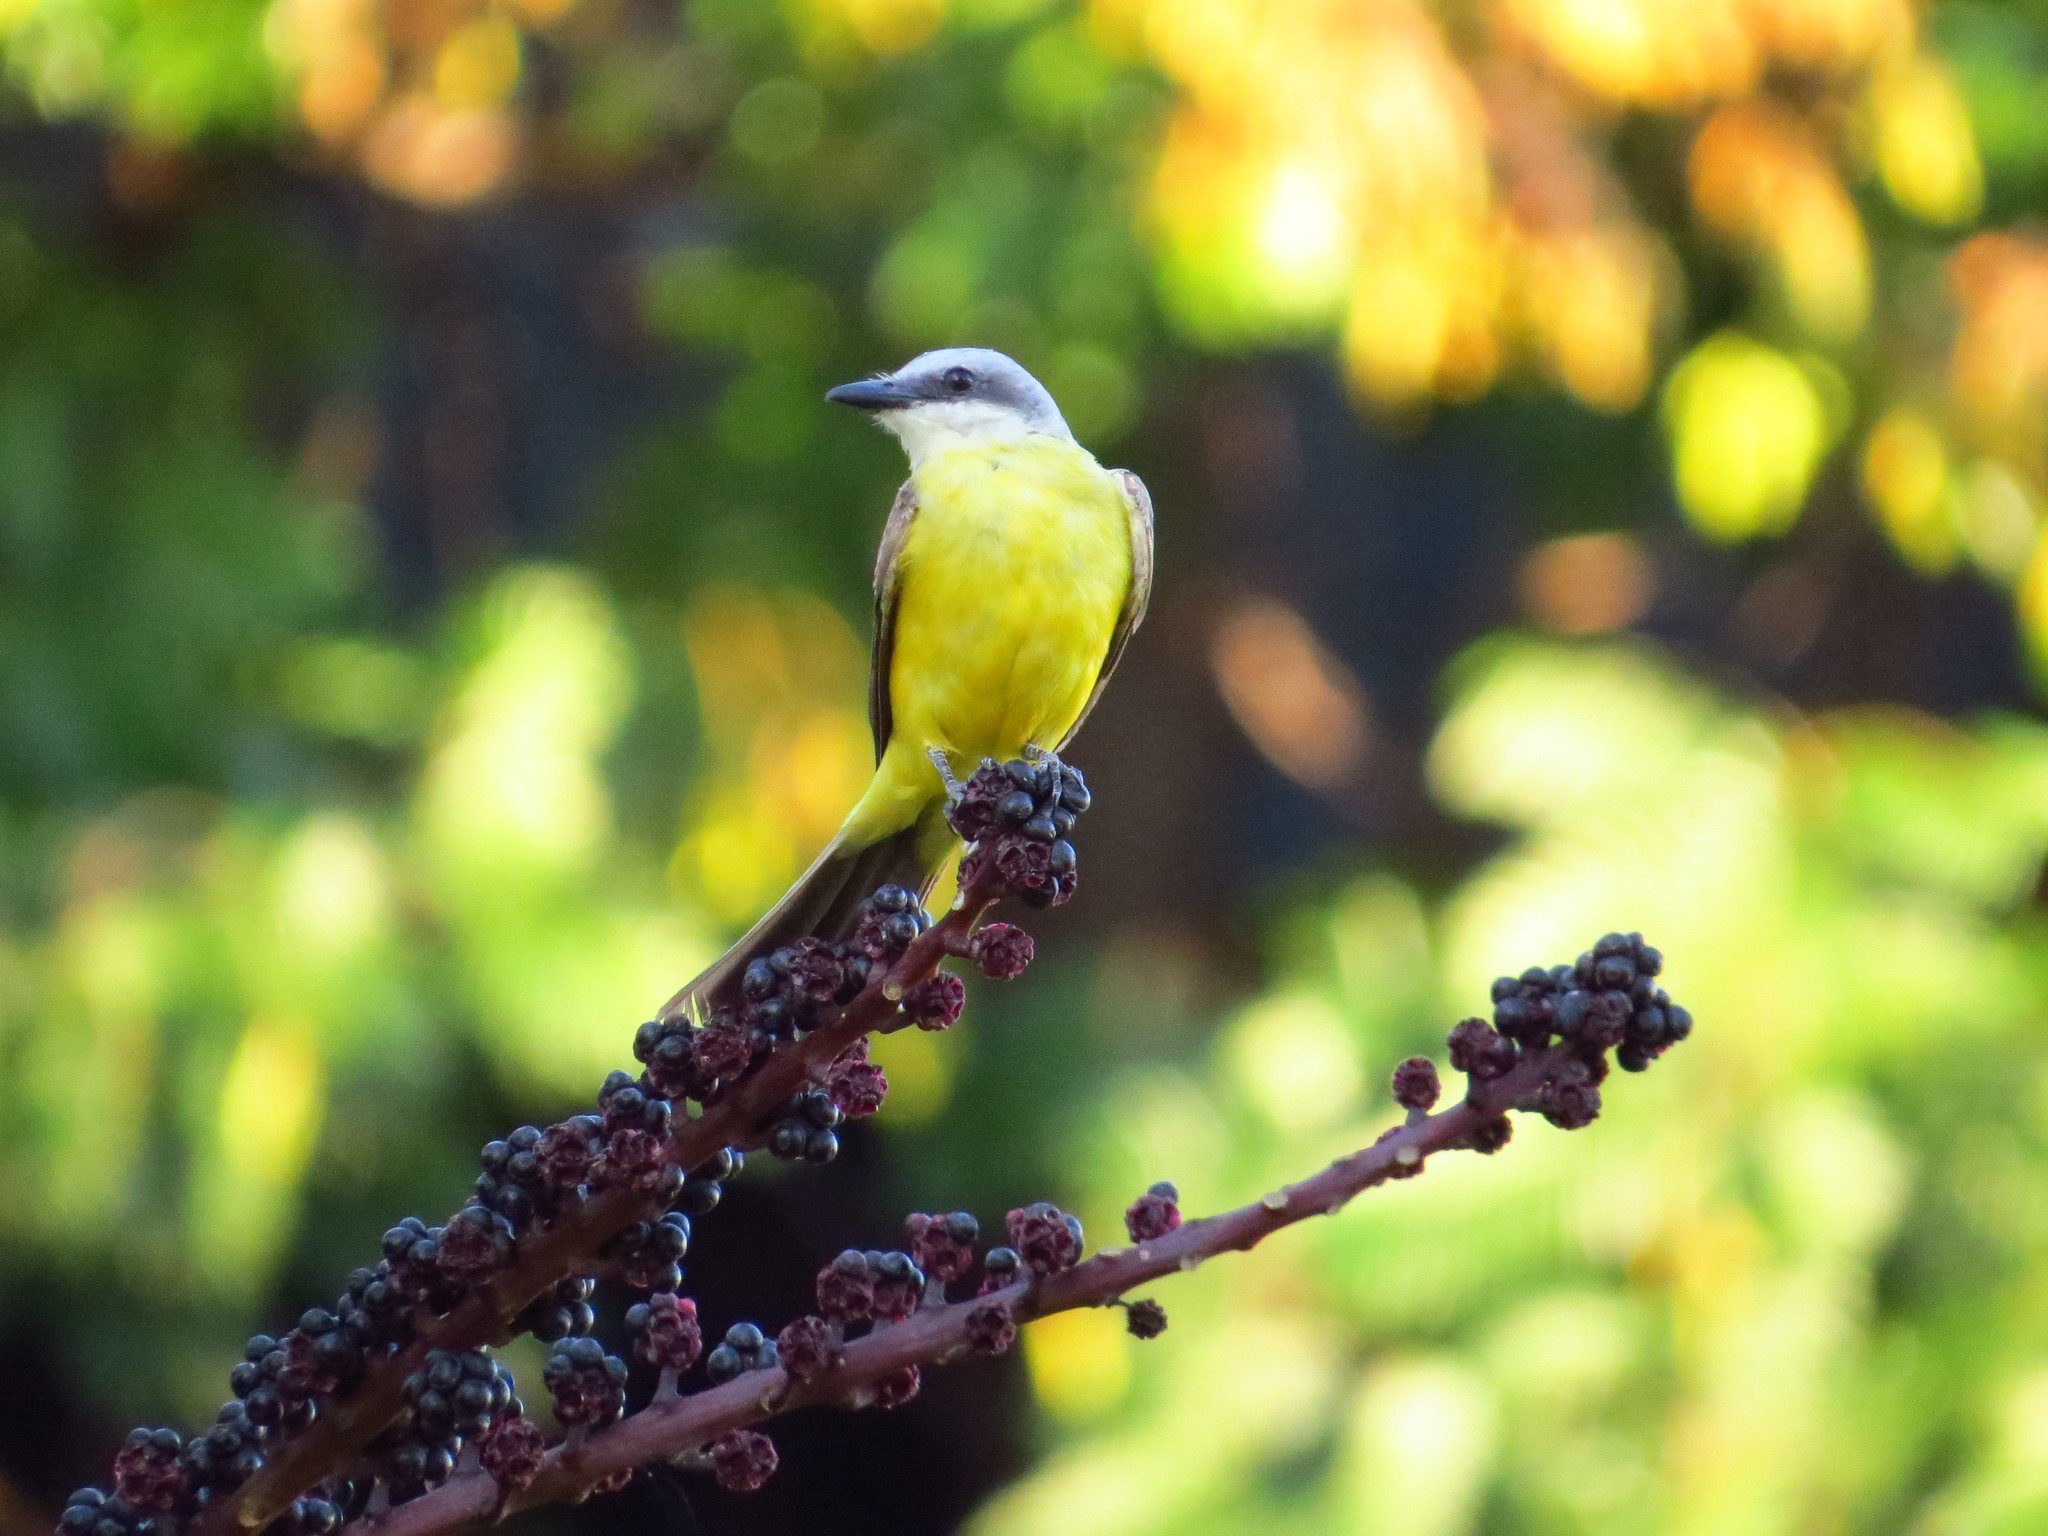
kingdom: Animalia
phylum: Chordata
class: Aves
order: Passeriformes
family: Tyrannidae
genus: Tyrannus
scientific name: Tyrannus albogularis
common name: White-throated kingbird
